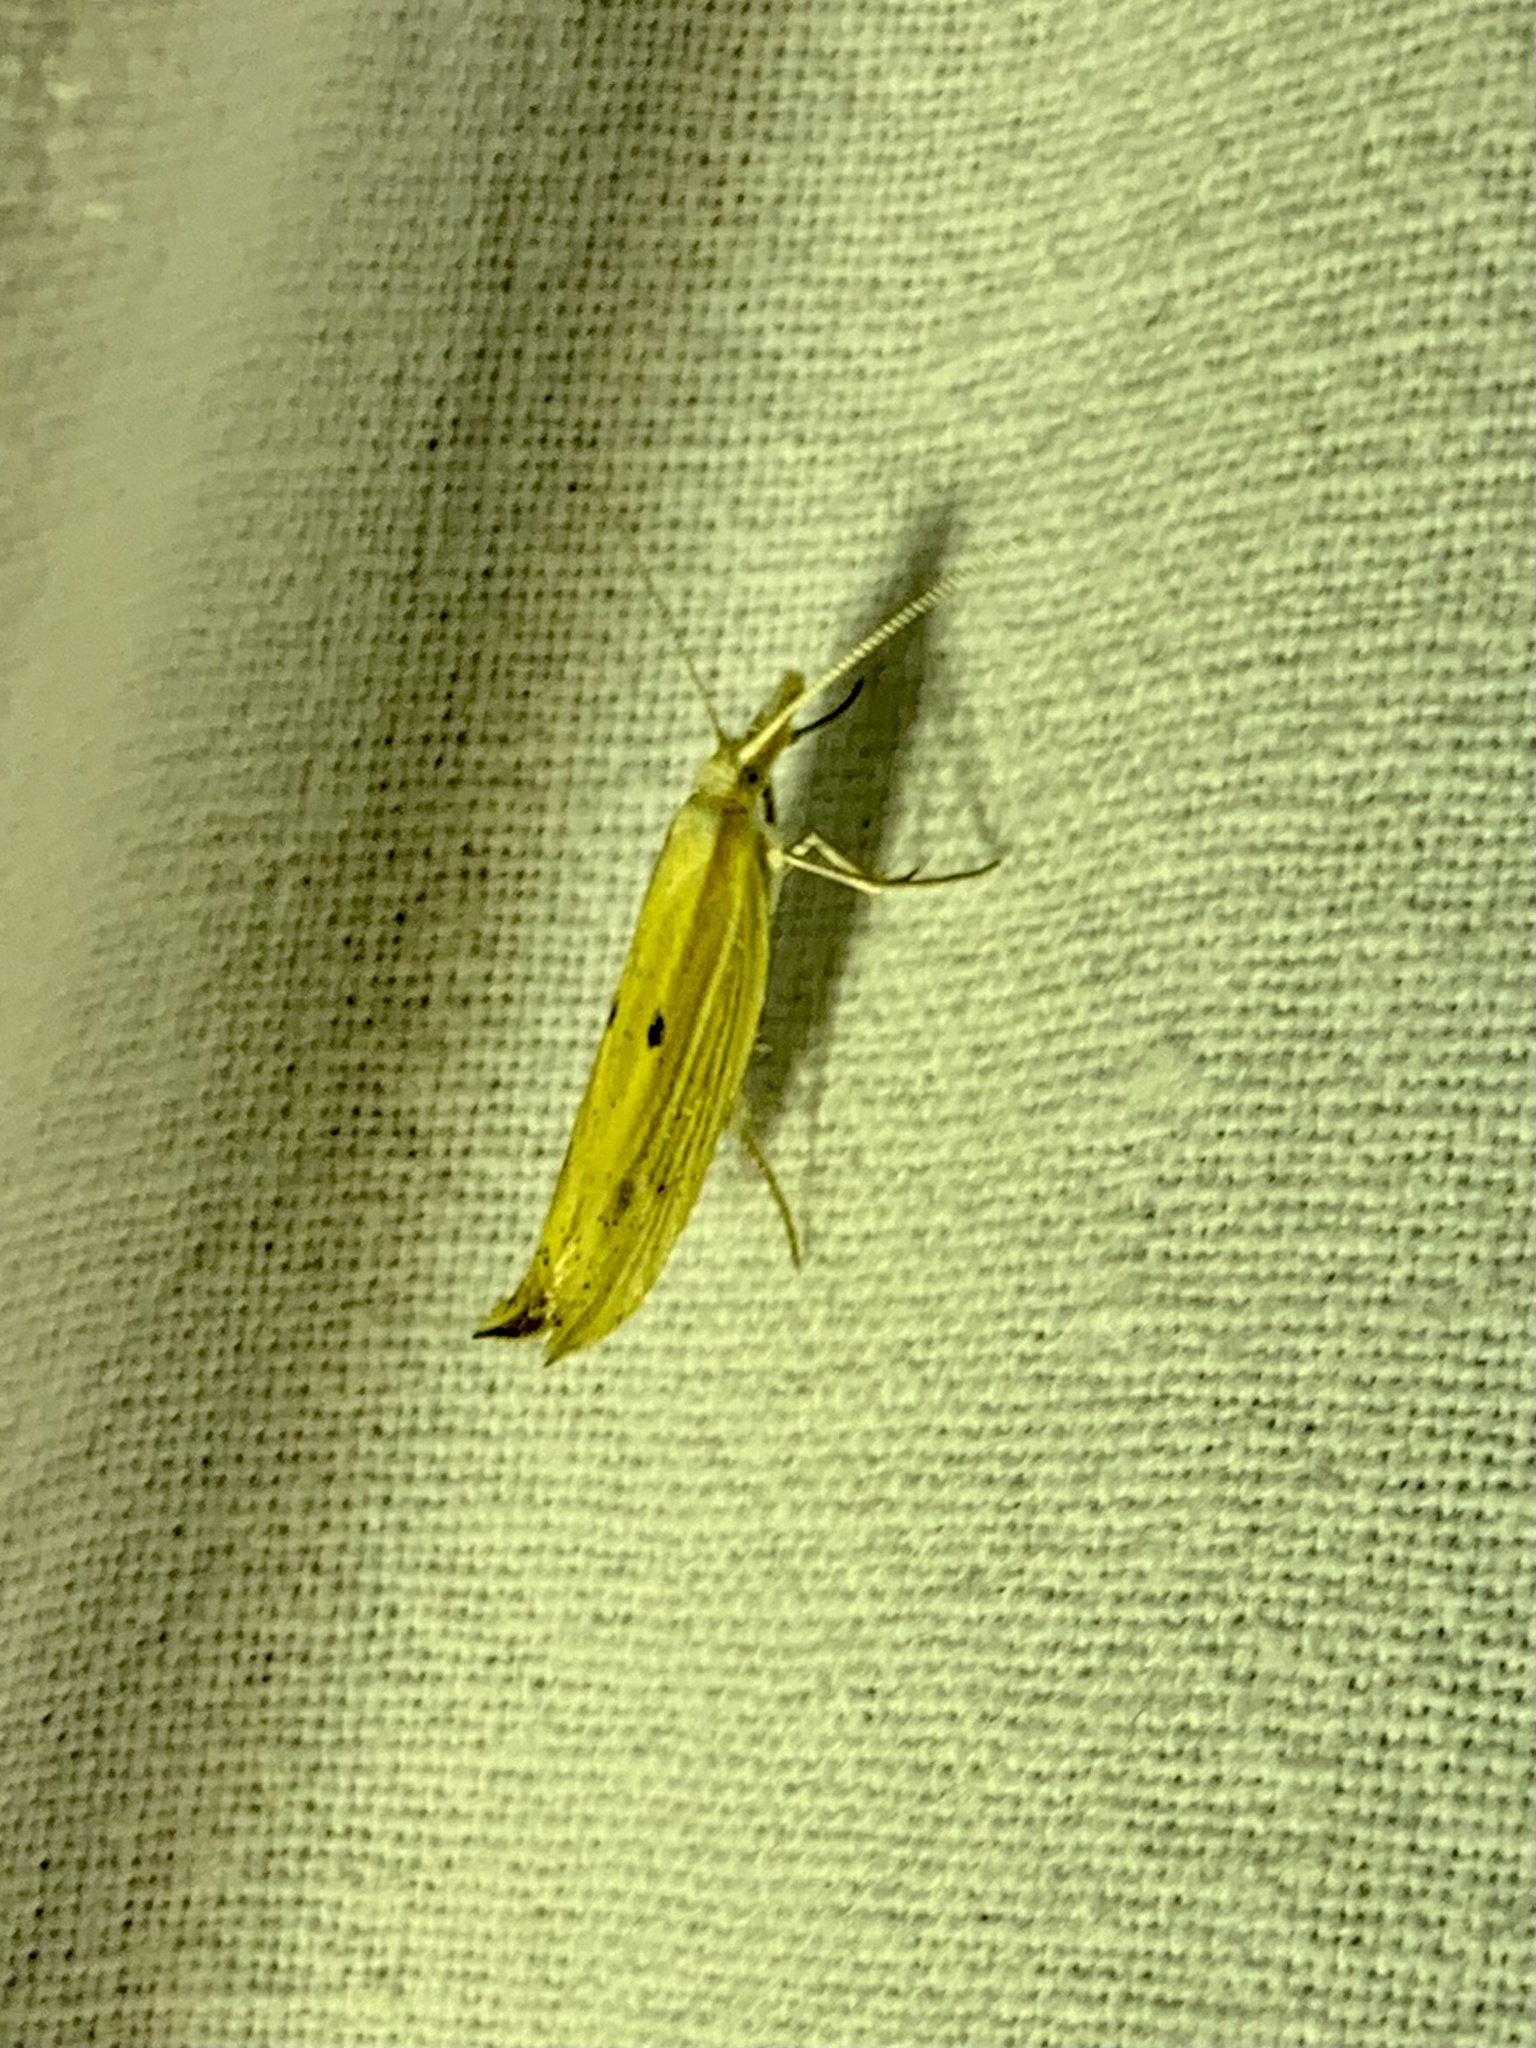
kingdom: Animalia
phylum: Arthropoda
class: Insecta
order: Lepidoptera
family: Ypsolophidae
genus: Ypsolopha
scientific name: Ypsolopha nemorella
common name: Hooked smudge
